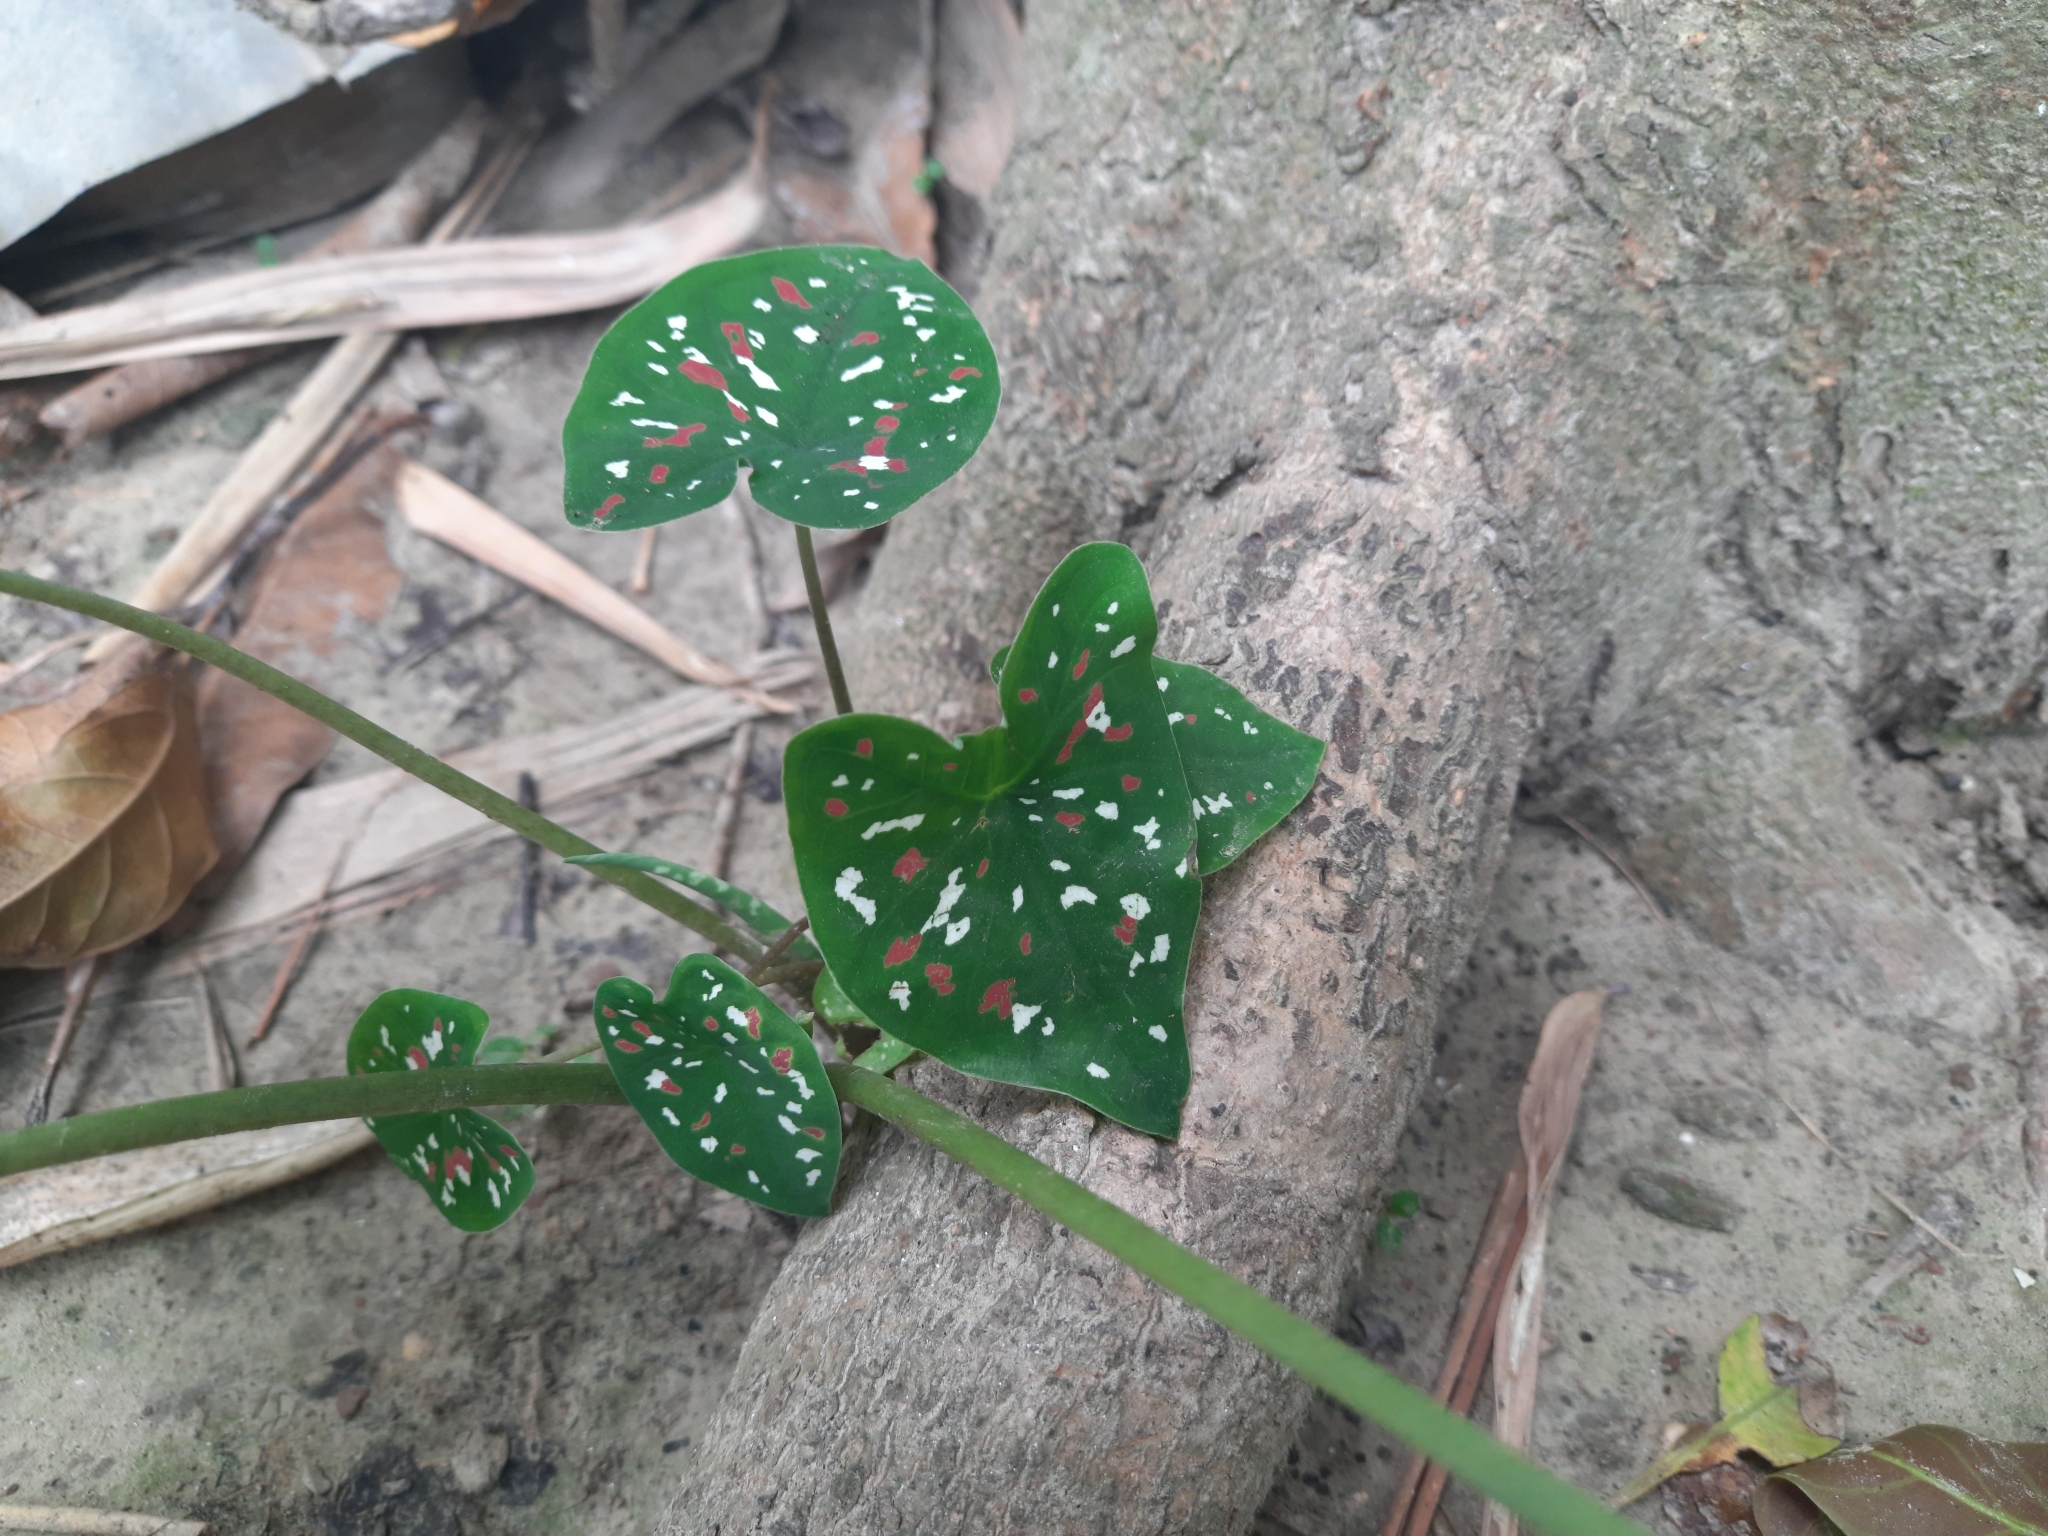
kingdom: Plantae
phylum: Tracheophyta
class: Liliopsida
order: Alismatales
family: Araceae
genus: Caladium
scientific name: Caladium bicolor
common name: Artist's pallet
